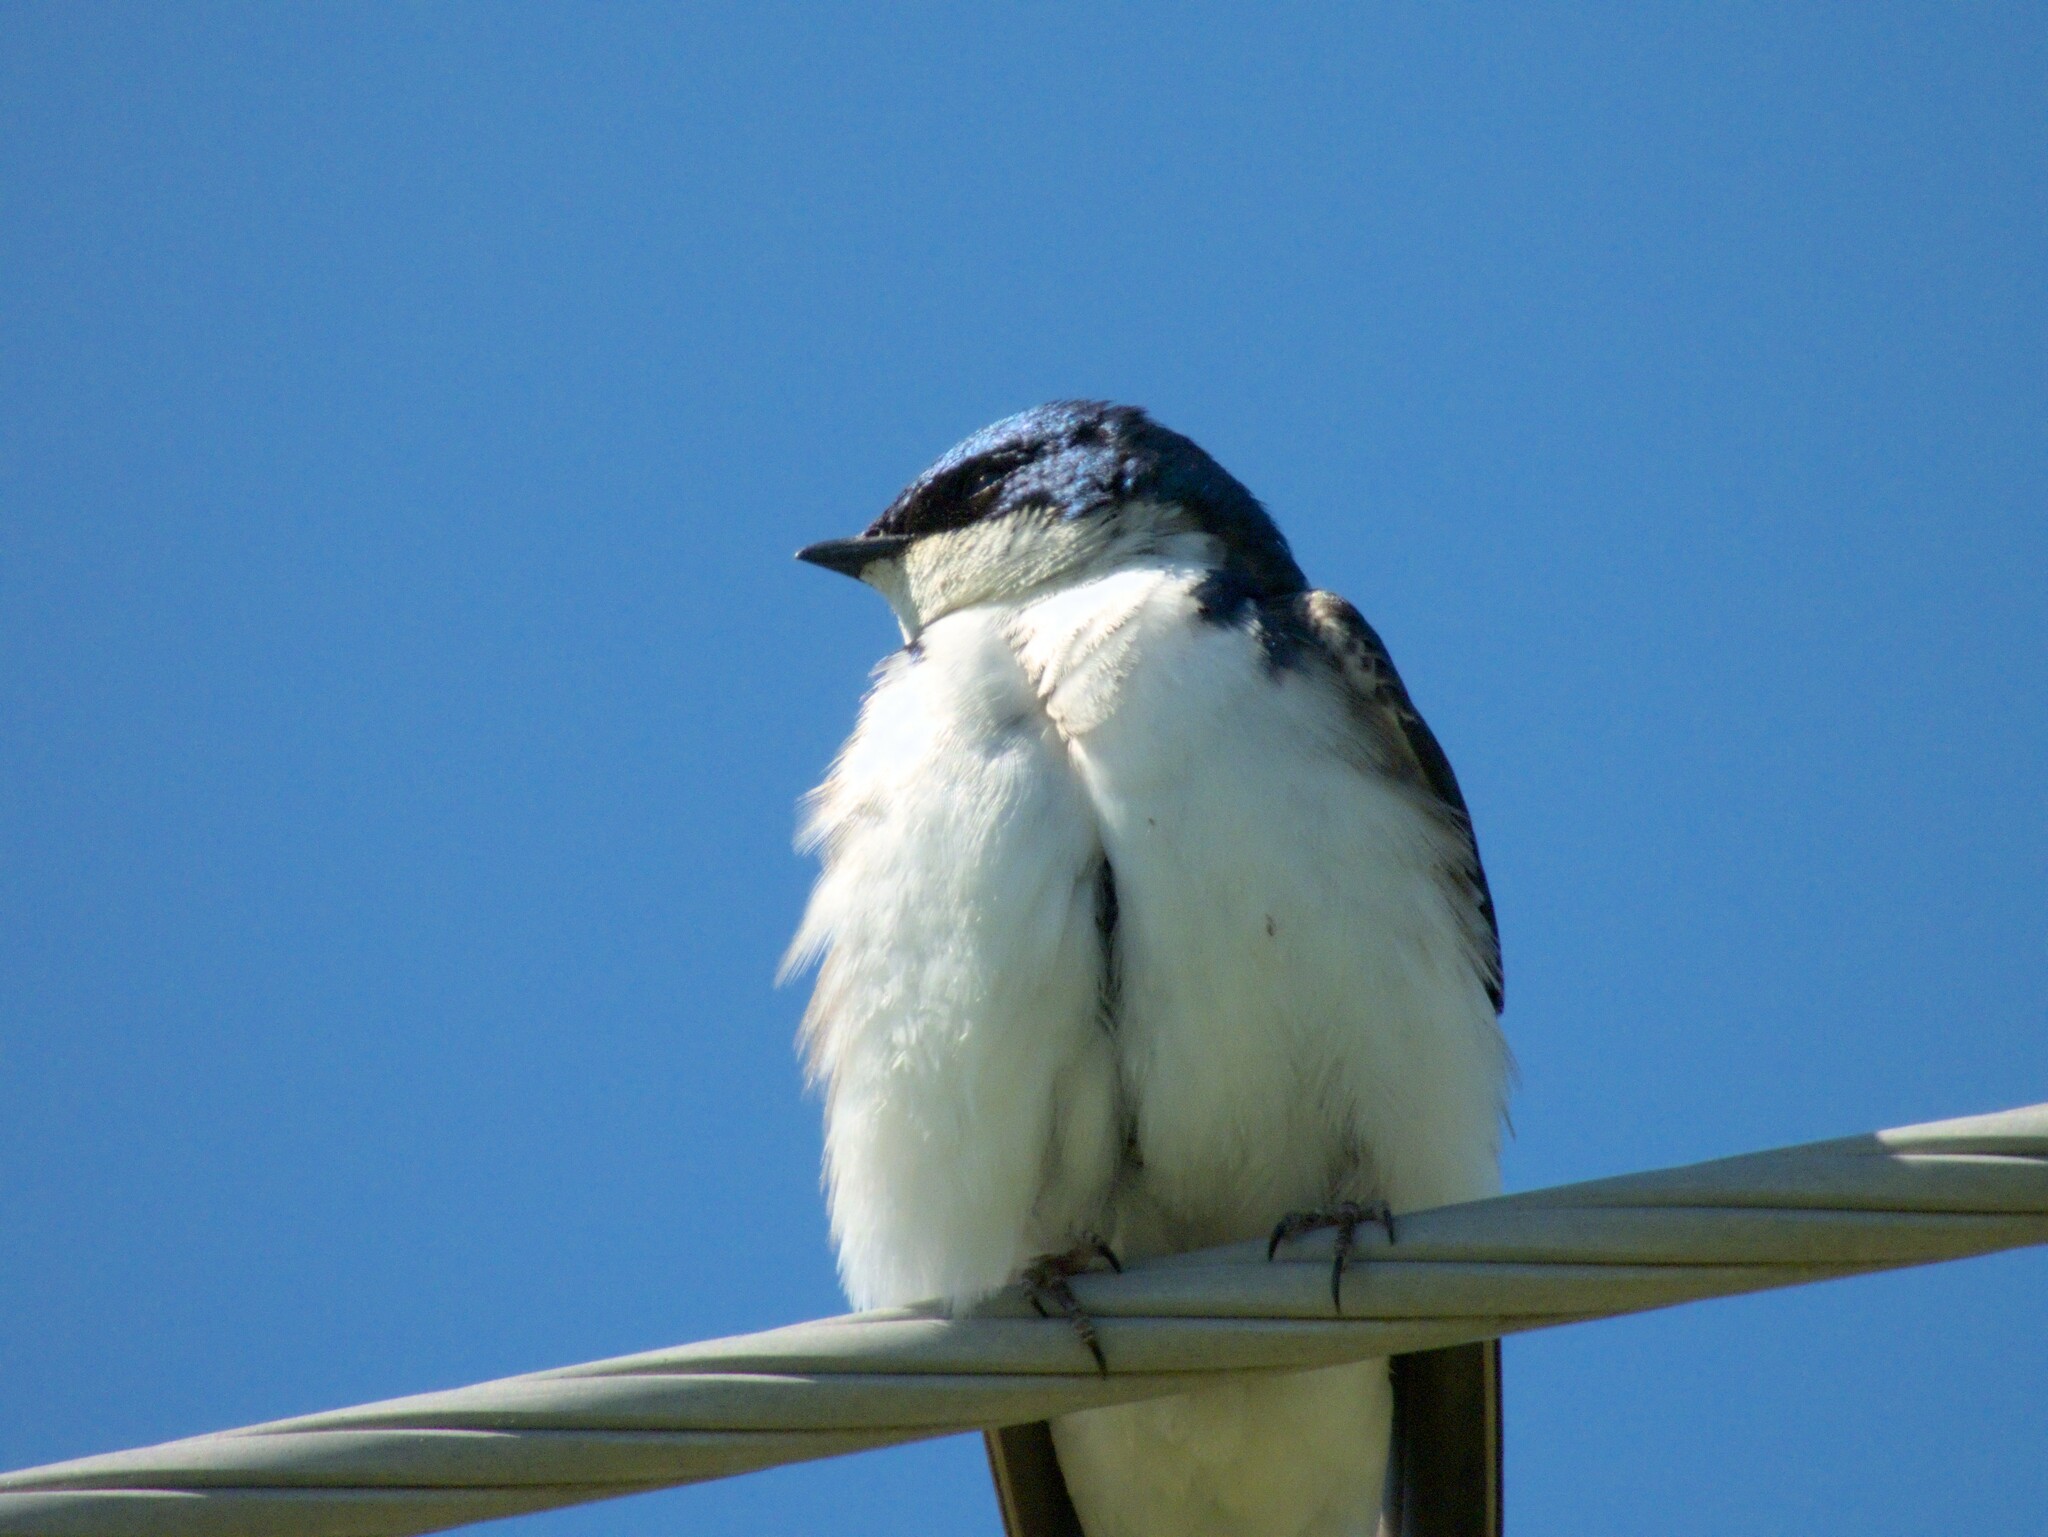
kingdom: Animalia
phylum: Chordata
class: Aves
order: Passeriformes
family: Hirundinidae
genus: Tachycineta
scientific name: Tachycineta bicolor
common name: Tree swallow
